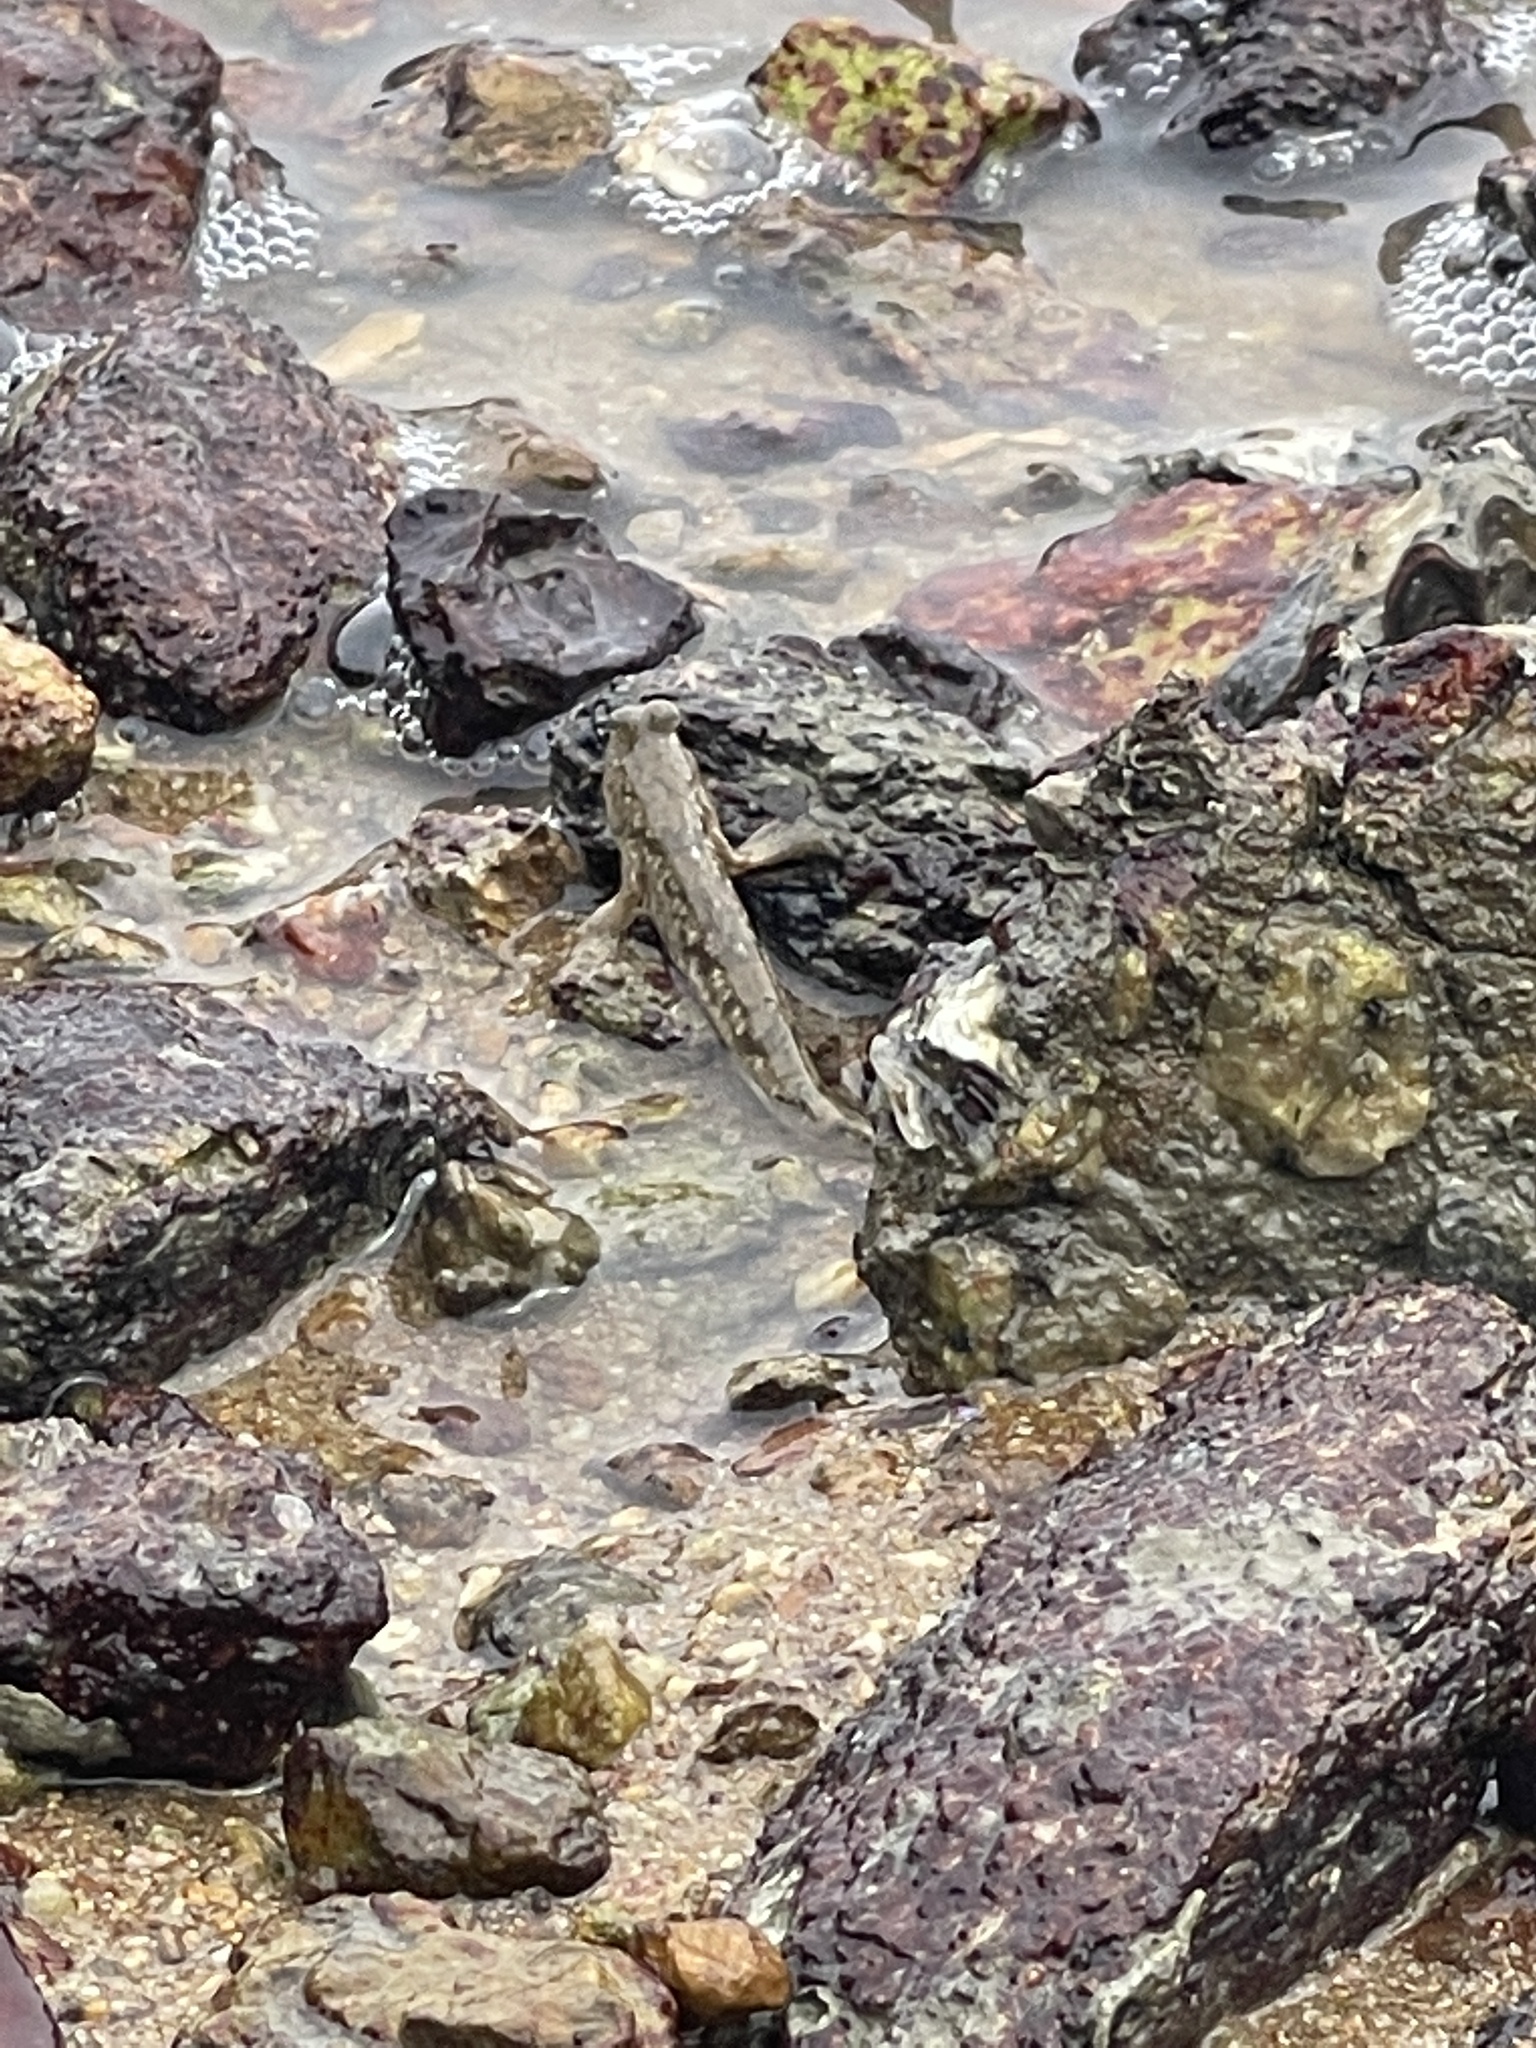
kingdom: Animalia
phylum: Chordata
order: Perciformes
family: Gobiidae
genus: Periophthalmus
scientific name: Periophthalmus modestus
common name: Black goby
